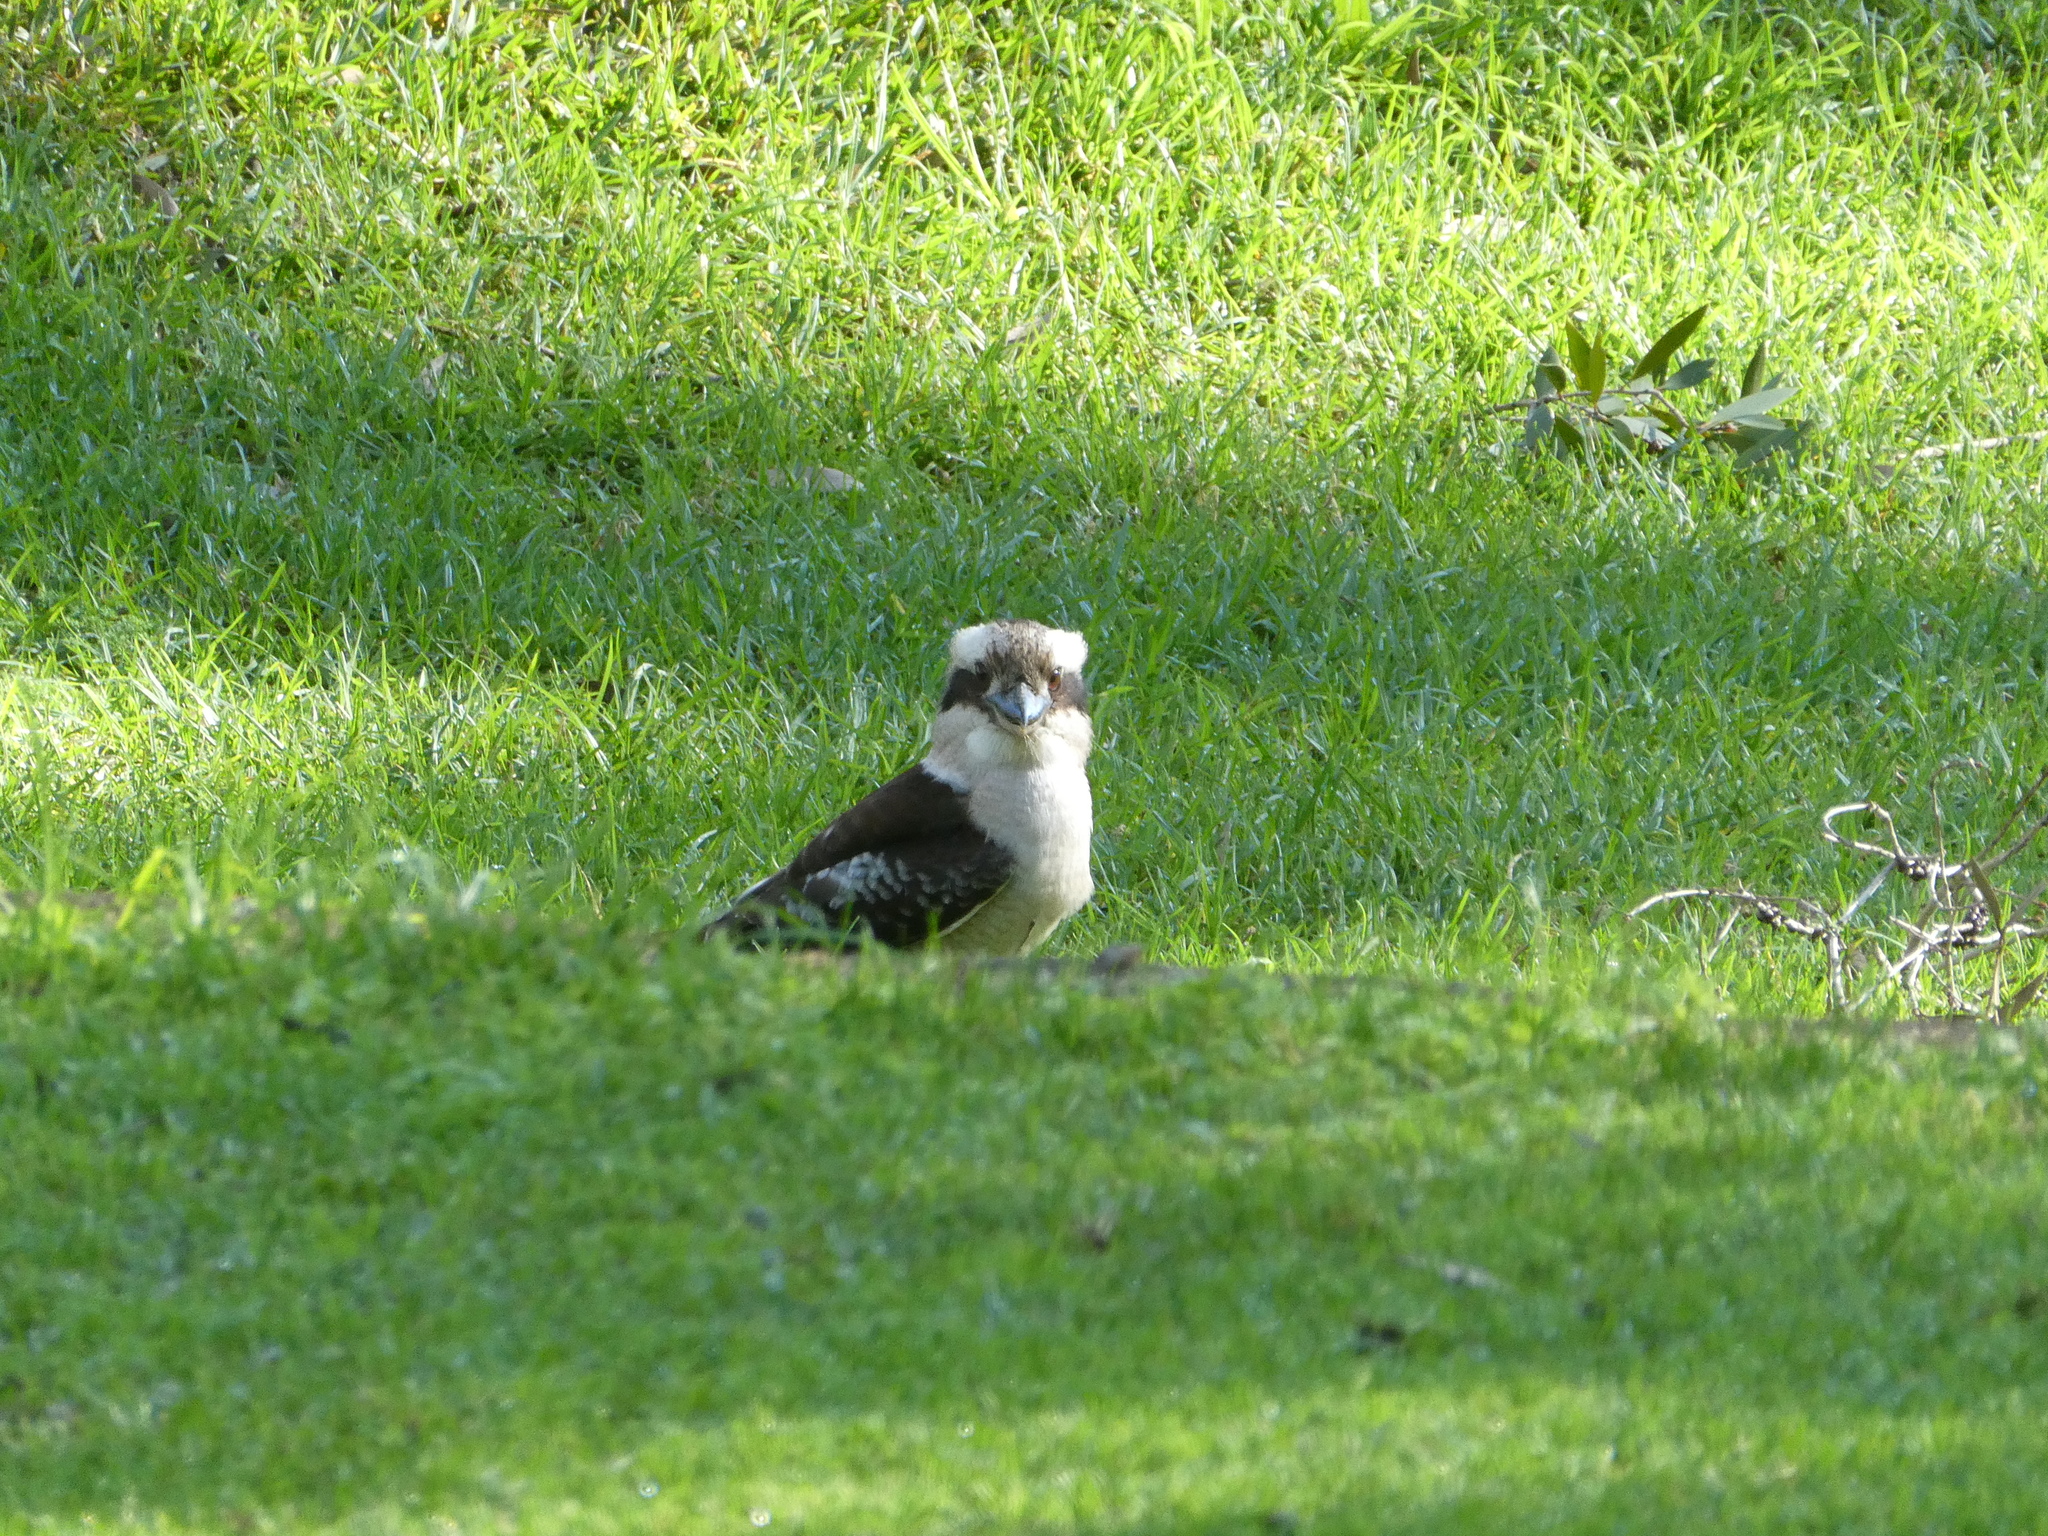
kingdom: Animalia
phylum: Chordata
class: Aves
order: Coraciiformes
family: Alcedinidae
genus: Dacelo
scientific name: Dacelo novaeguineae
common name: Laughing kookaburra
